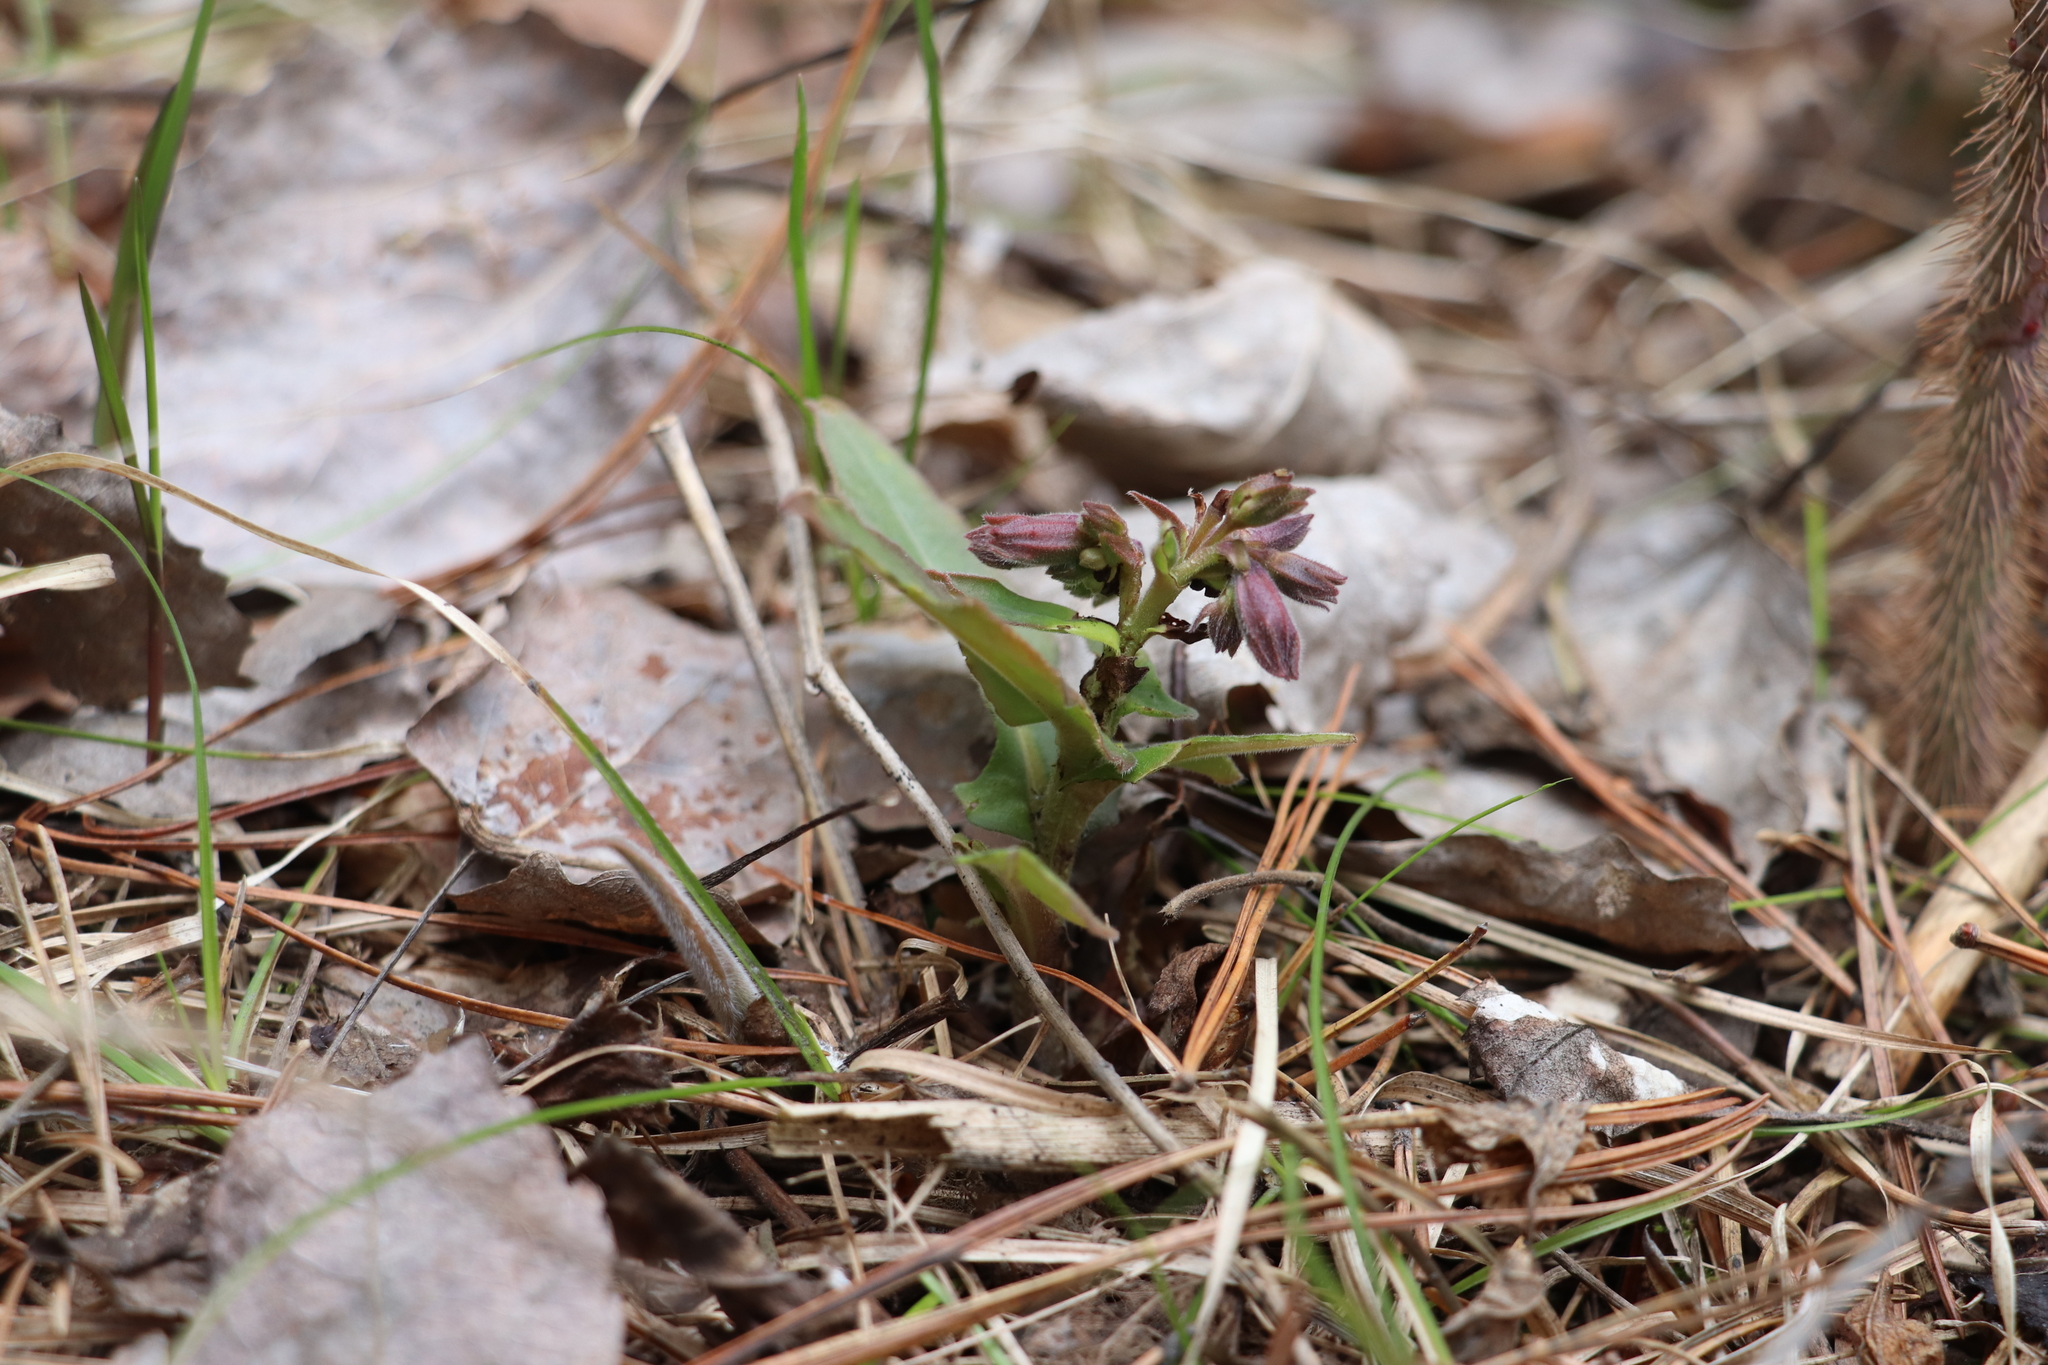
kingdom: Plantae
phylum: Tracheophyta
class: Magnoliopsida
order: Boraginales
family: Boraginaceae
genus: Pulmonaria
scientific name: Pulmonaria mollis
